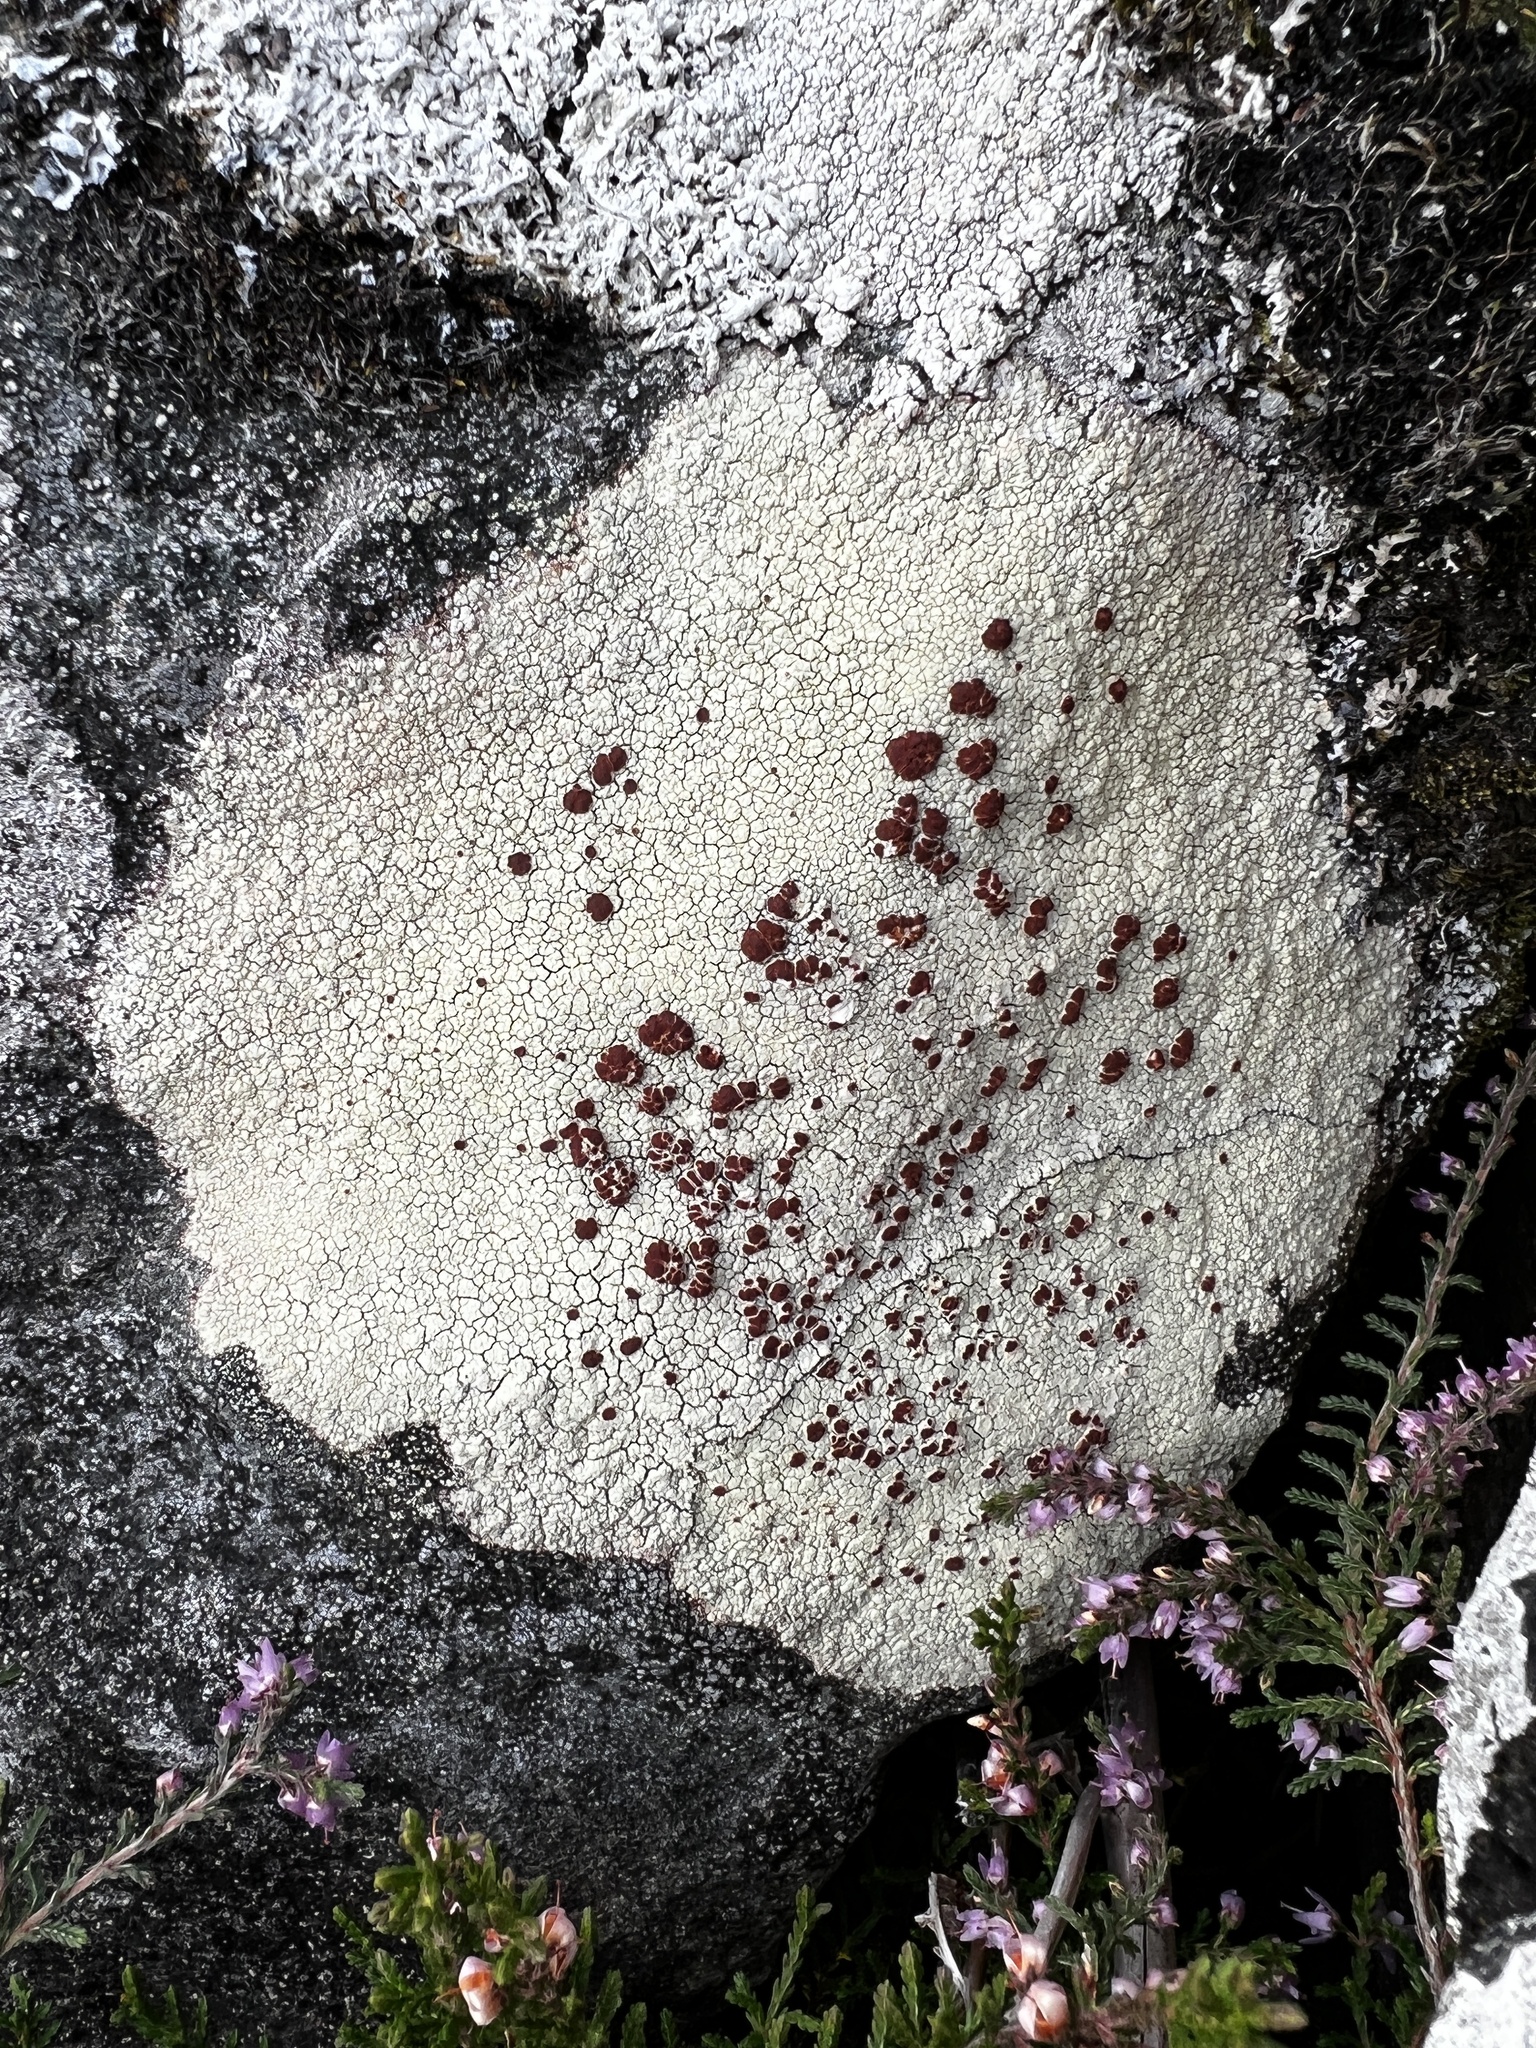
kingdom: Fungi
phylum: Ascomycota
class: Lecanoromycetes
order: Umbilicariales
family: Ophioparmaceae
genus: Ophioparma
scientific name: Ophioparma ventosa
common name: Blood-spot
